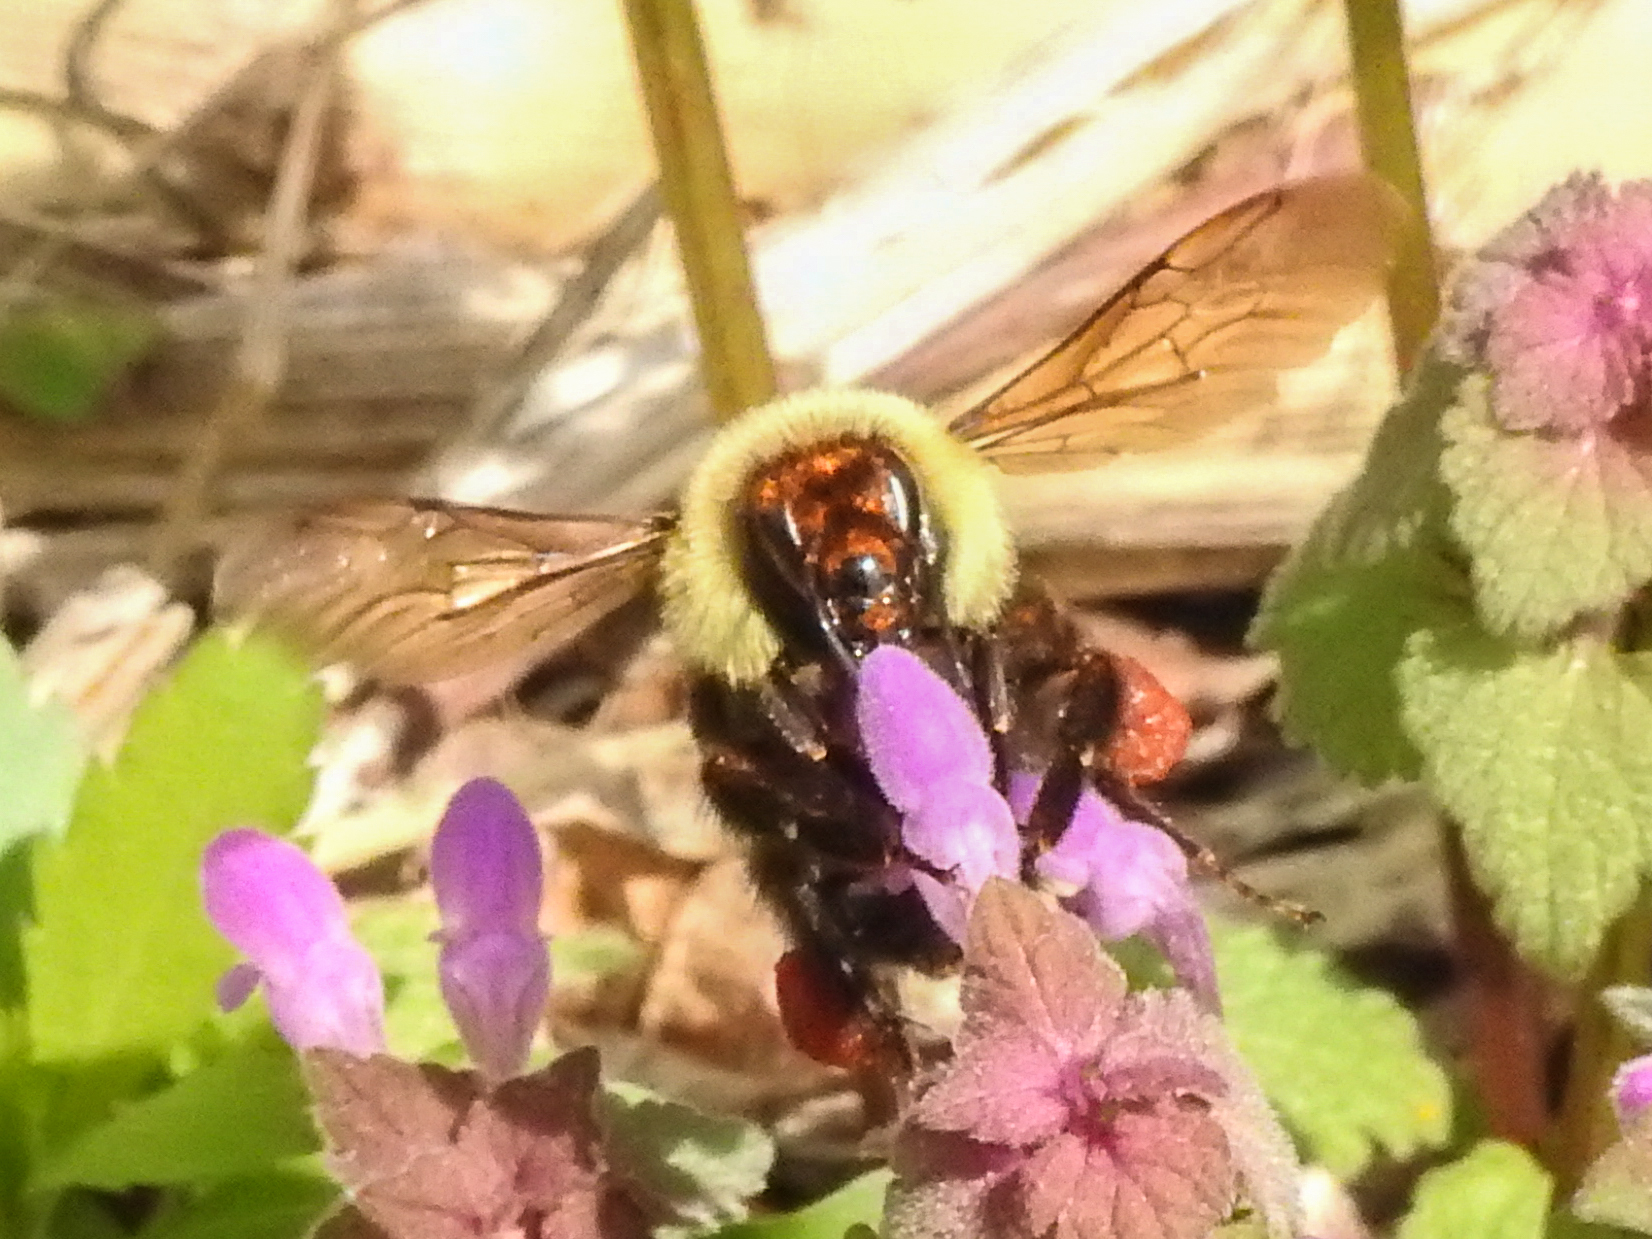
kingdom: Animalia
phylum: Arthropoda
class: Insecta
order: Hymenoptera
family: Apidae
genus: Bombus
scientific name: Bombus bimaculatus
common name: Two-spotted bumble bee
